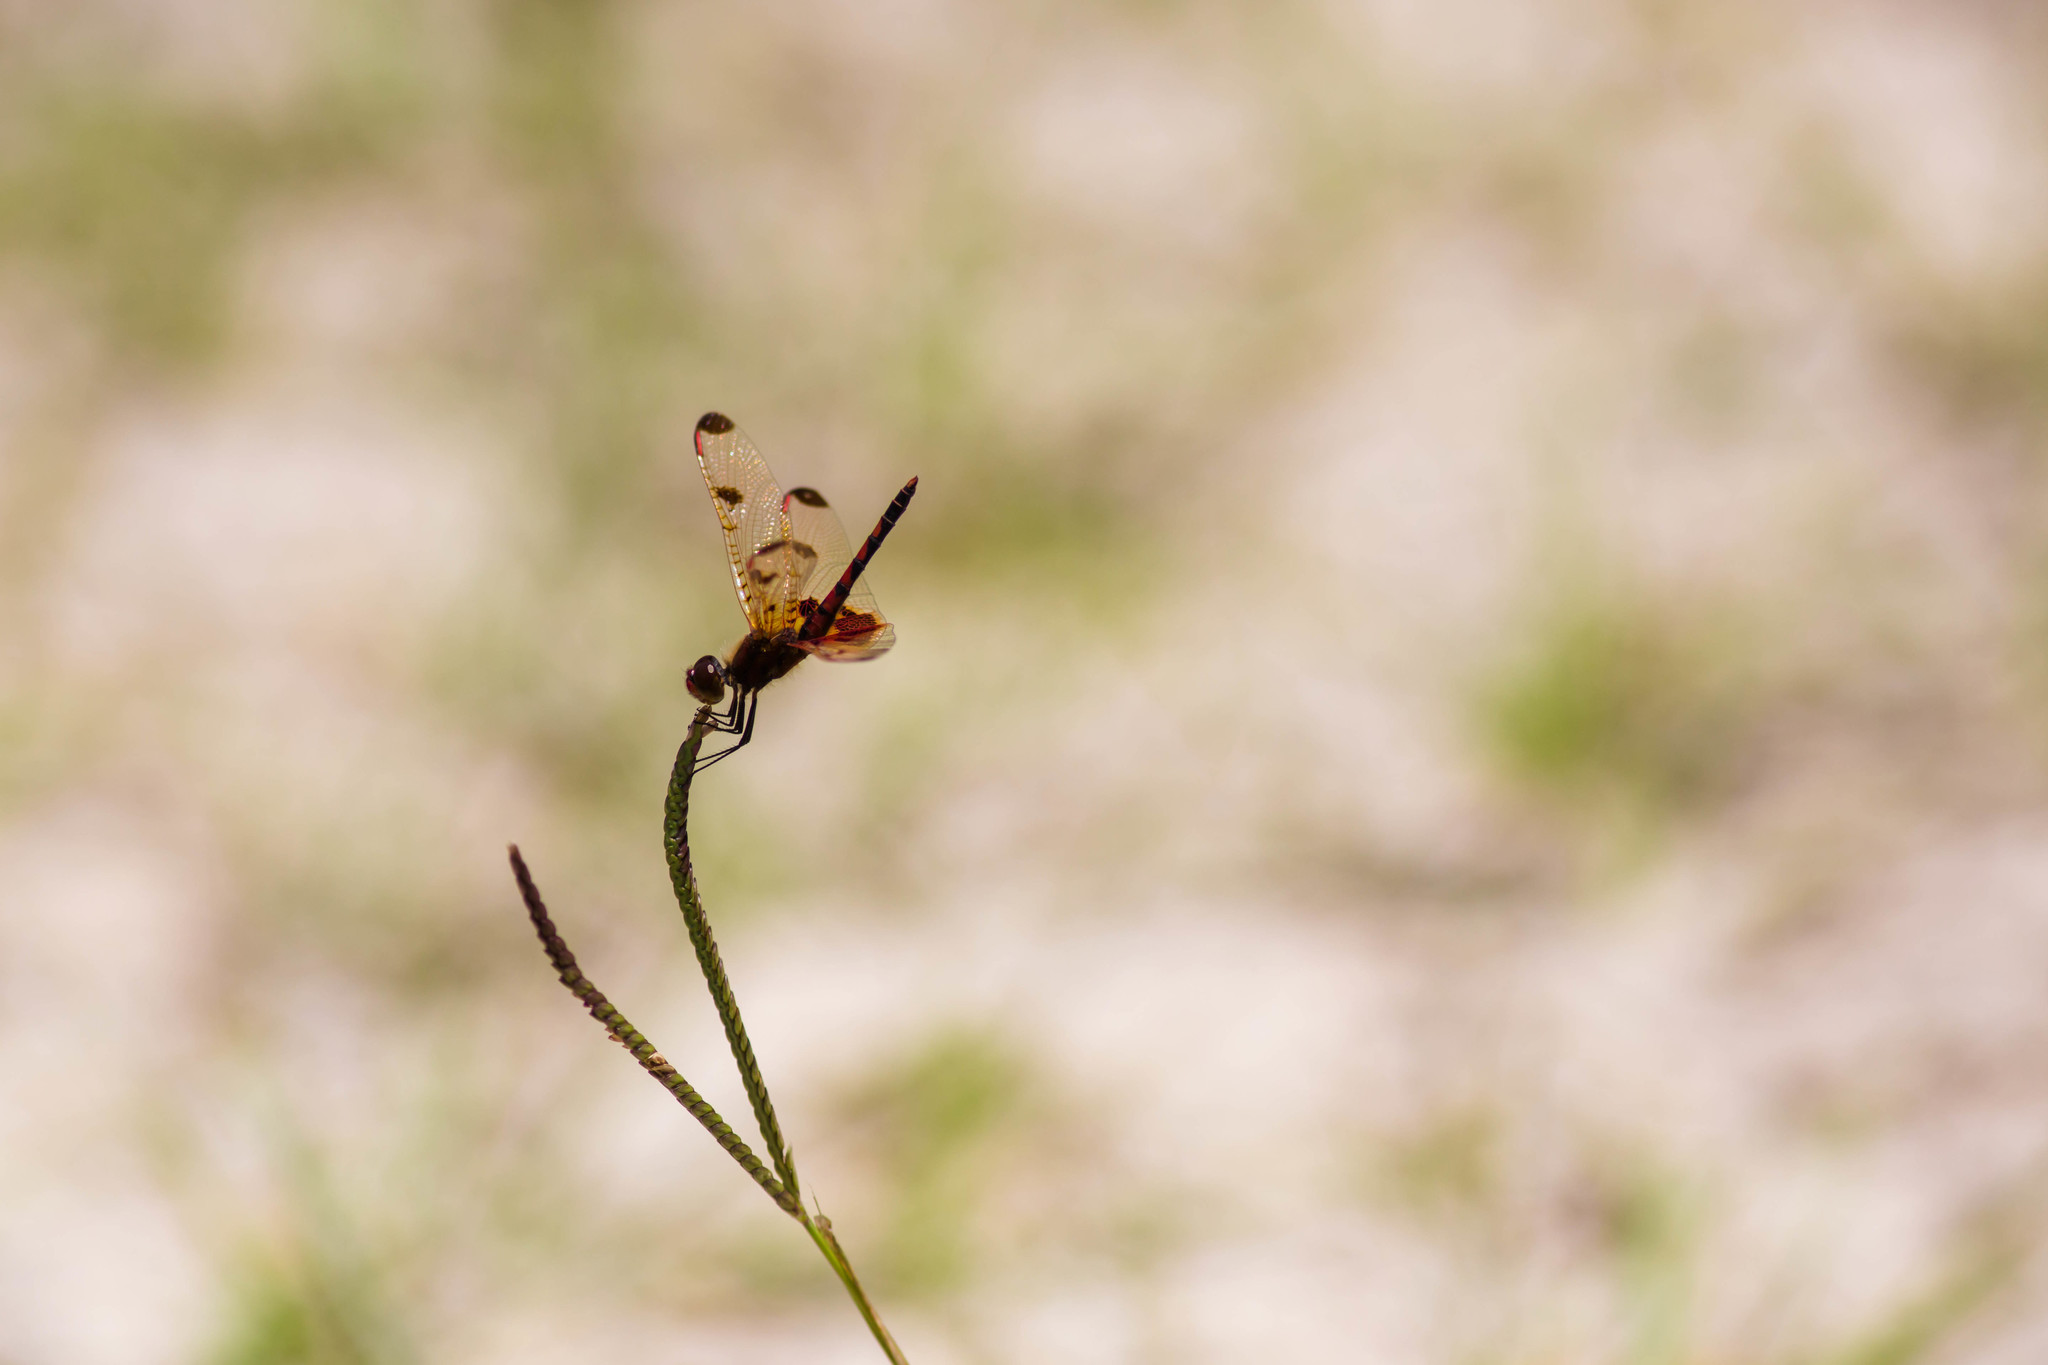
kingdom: Animalia
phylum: Arthropoda
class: Insecta
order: Odonata
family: Libellulidae
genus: Celithemis
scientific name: Celithemis elisa
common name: Calico pennant
